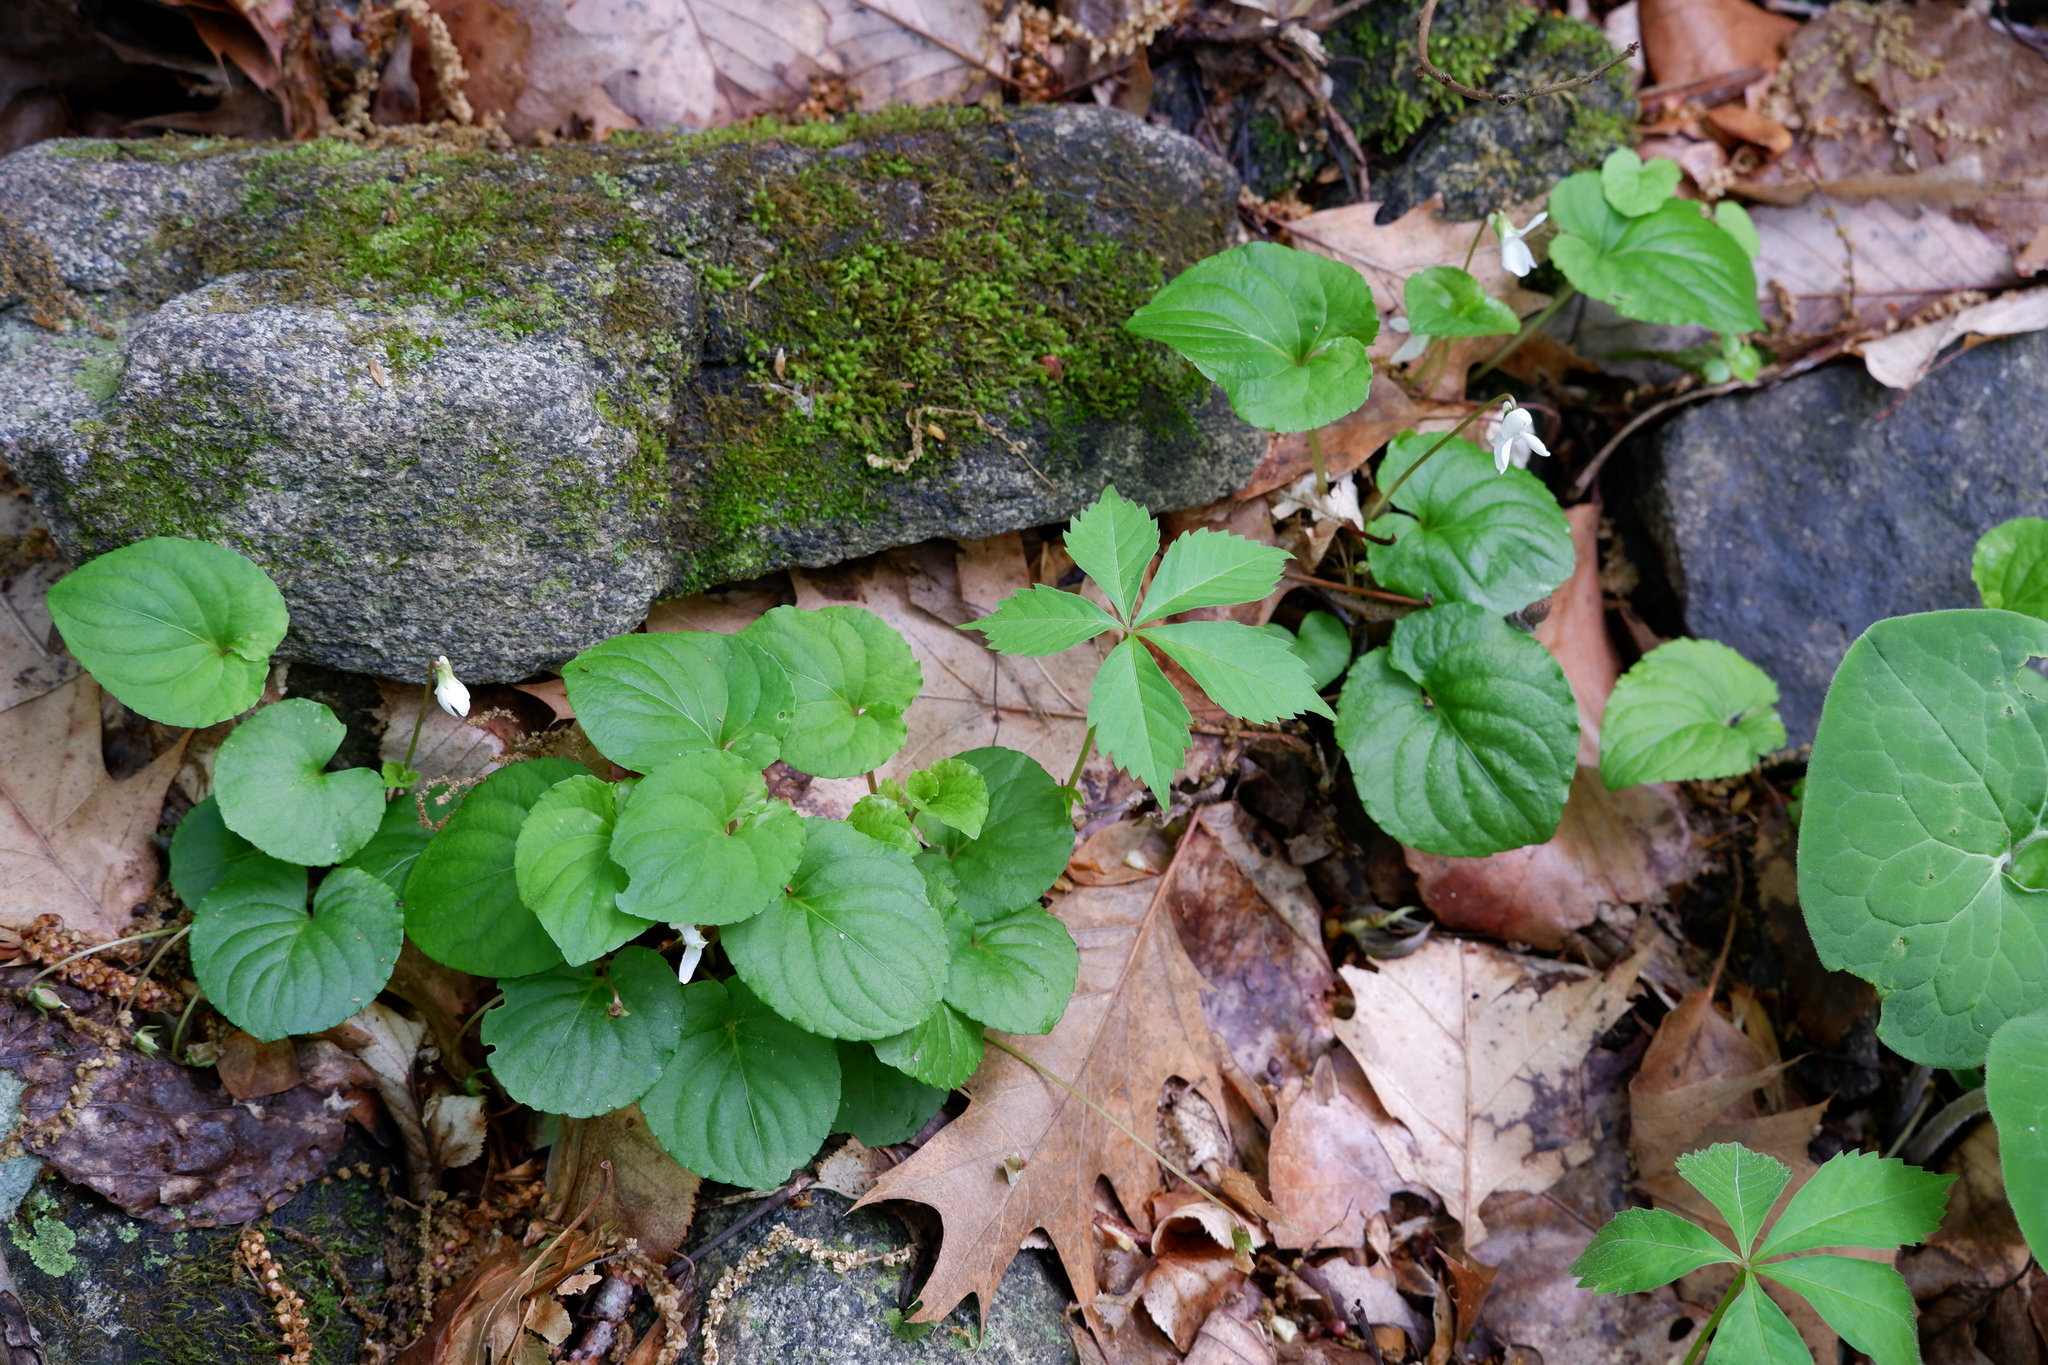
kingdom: Plantae
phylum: Tracheophyta
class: Magnoliopsida
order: Malpighiales
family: Violaceae
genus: Viola
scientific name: Viola blanda
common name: Sweet white violet
